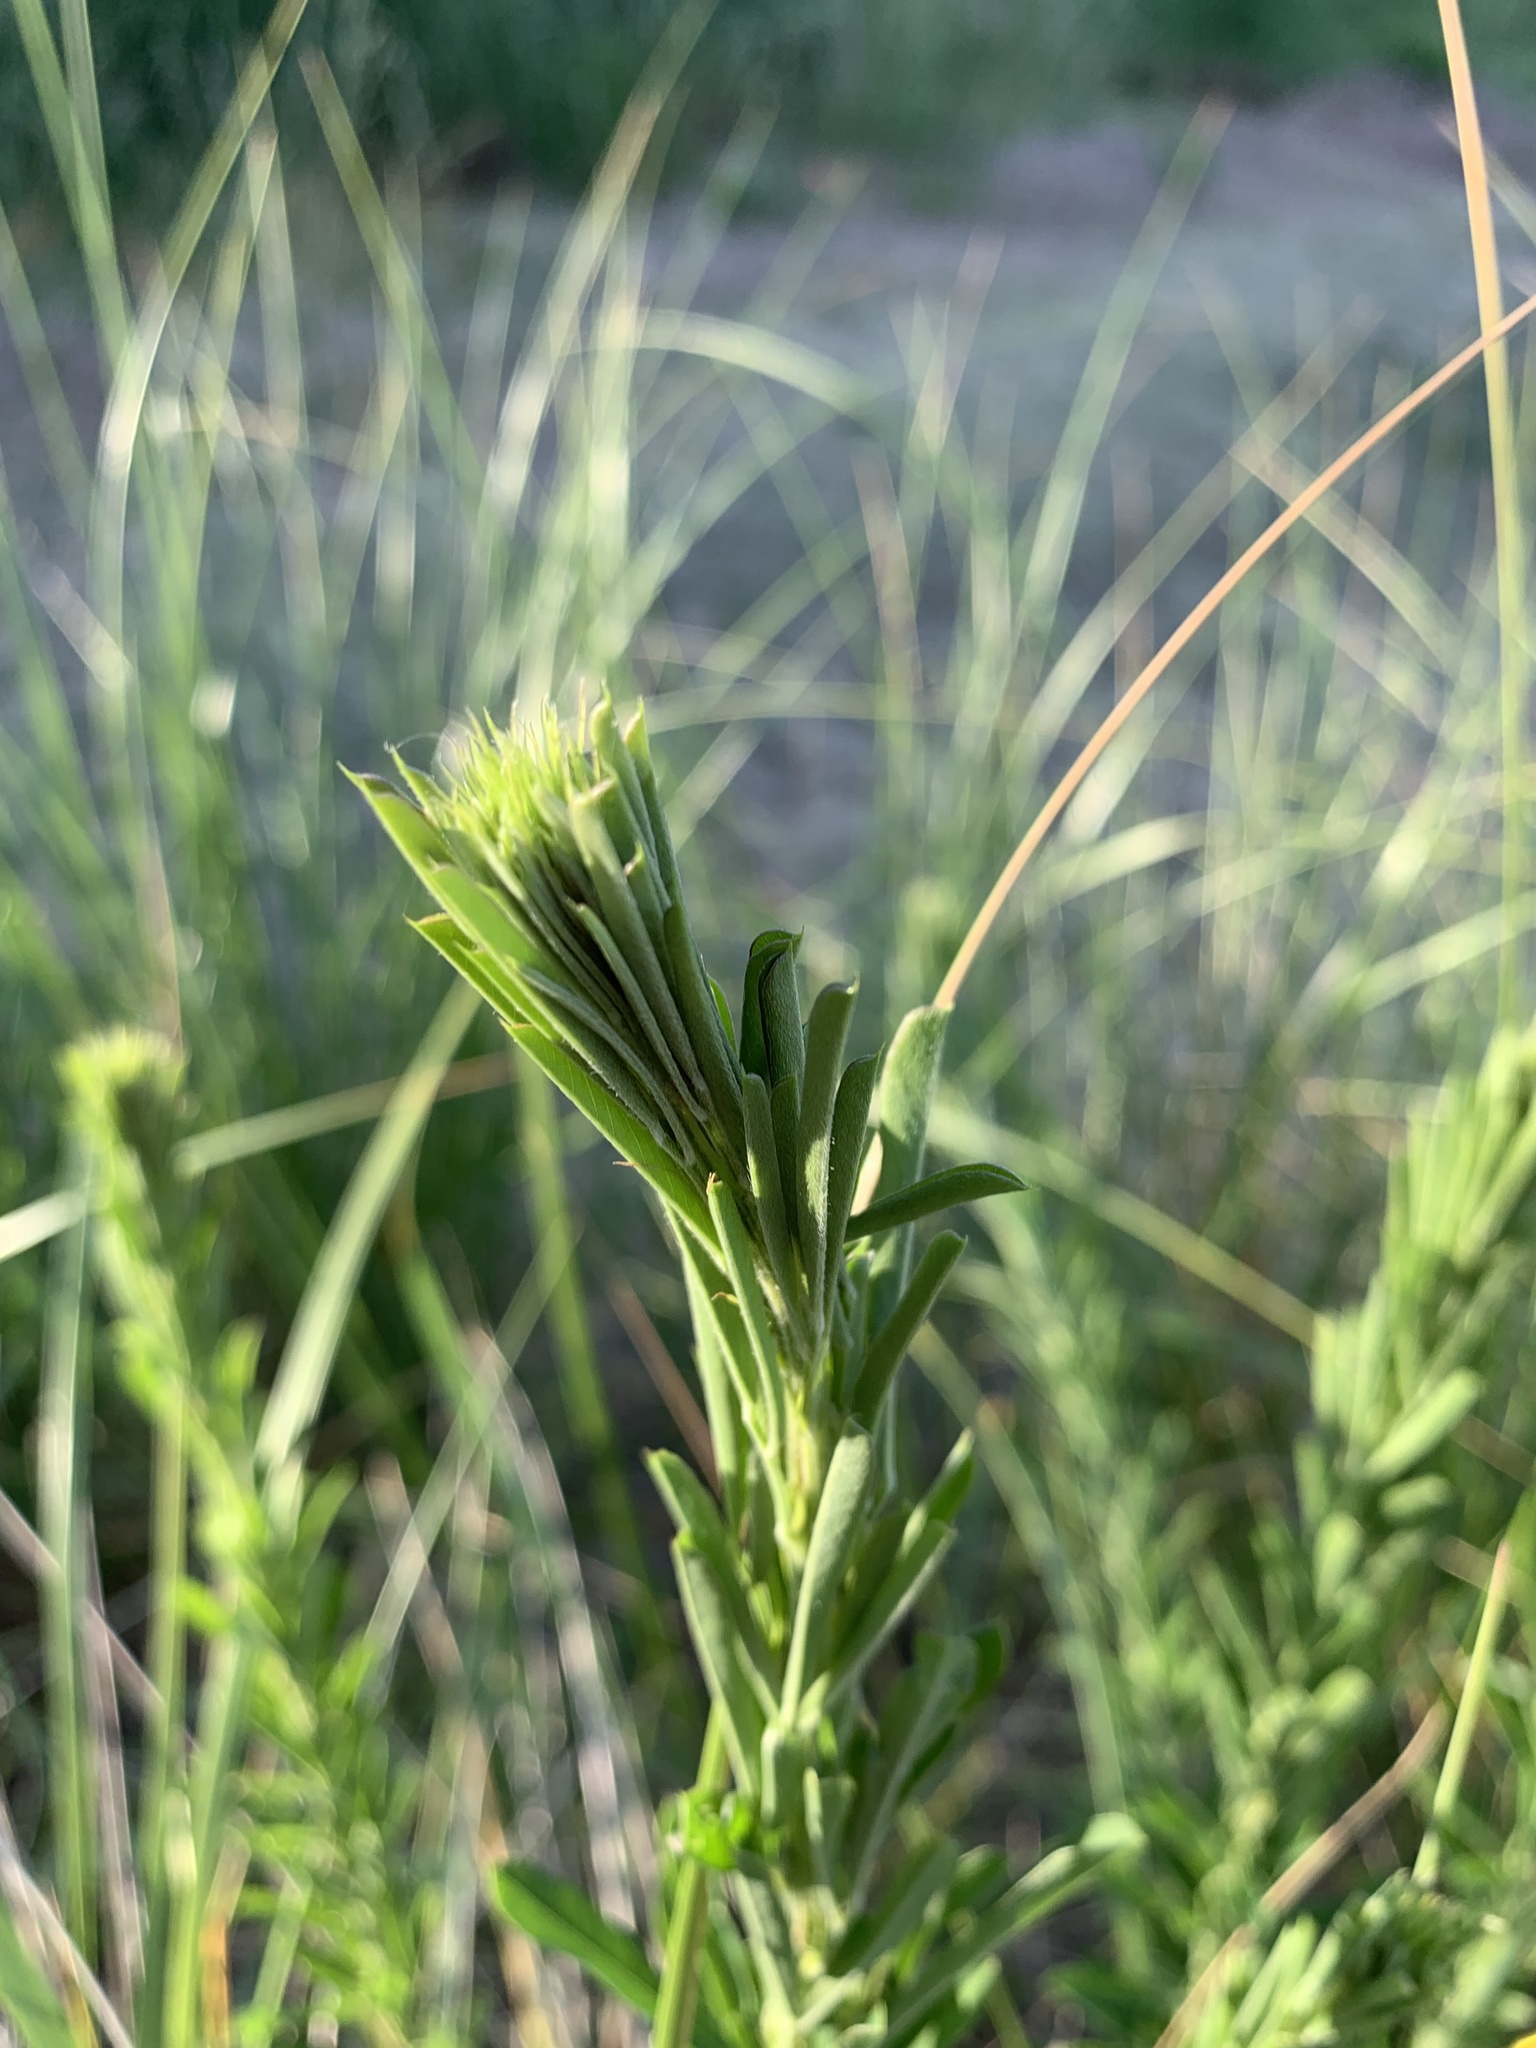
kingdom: Plantae
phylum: Tracheophyta
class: Magnoliopsida
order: Fabales
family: Fabaceae
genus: Lespedeza
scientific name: Lespedeza cuneata
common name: Chinese bush-clover
